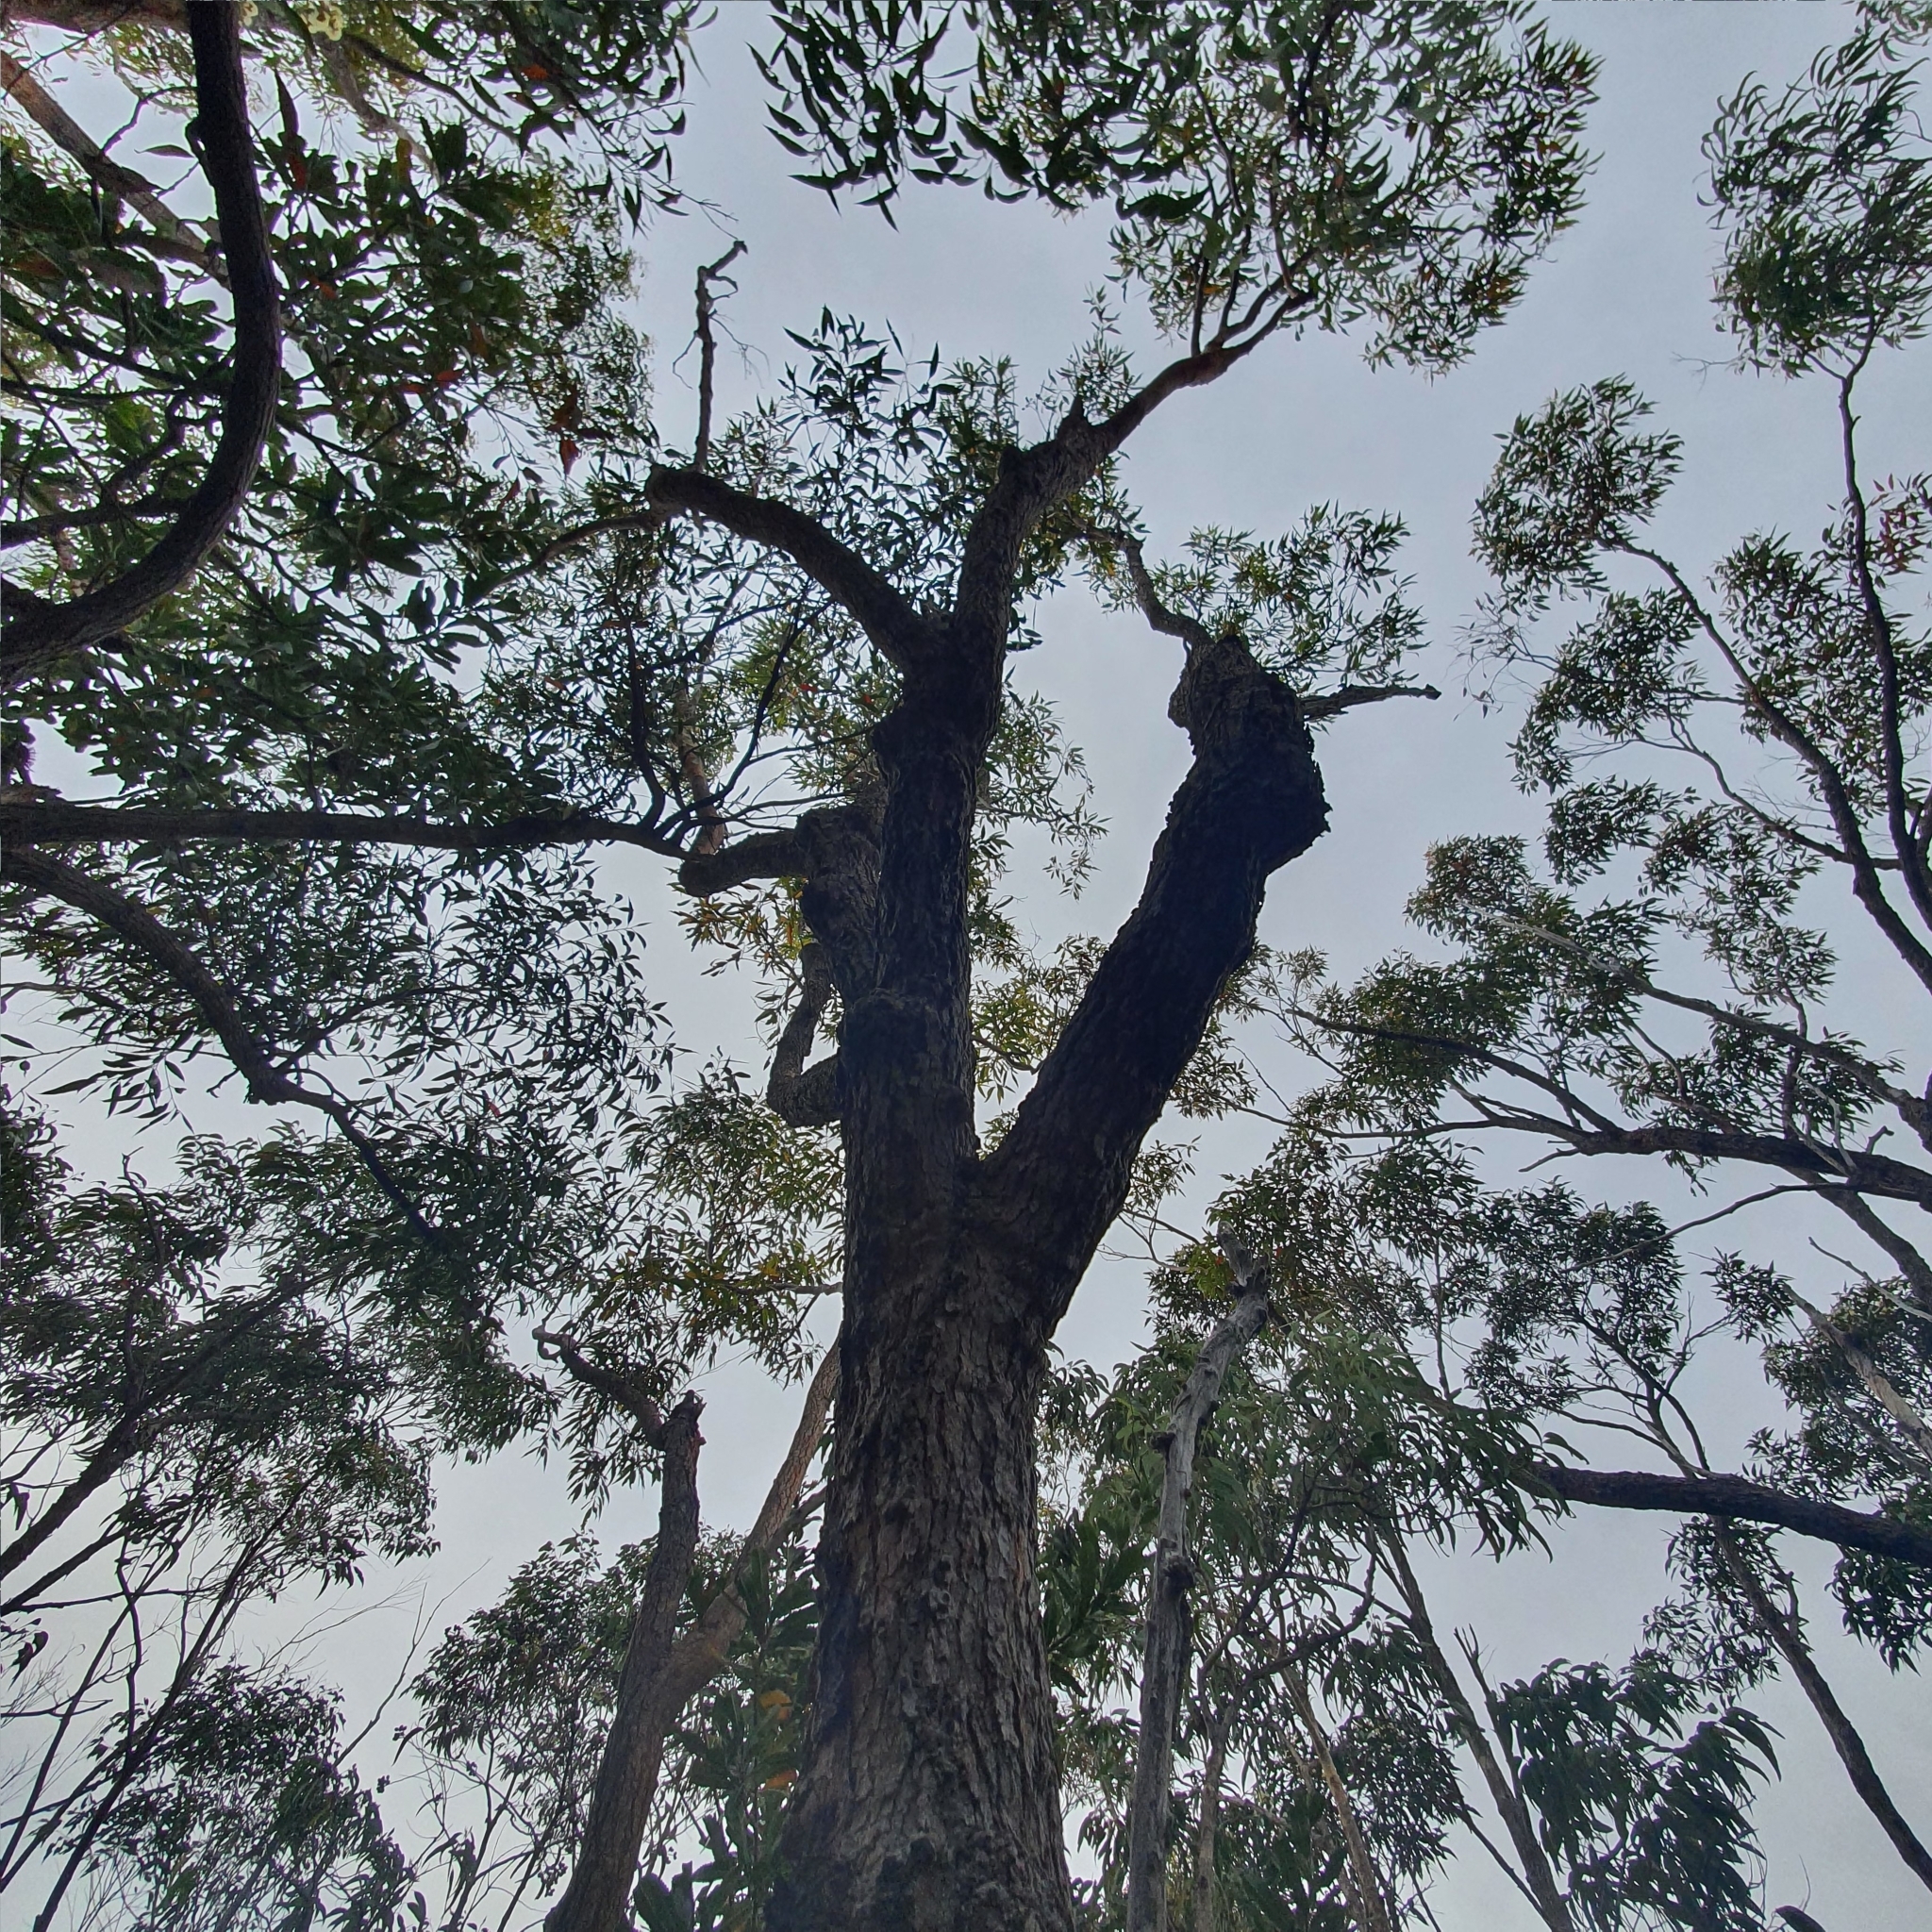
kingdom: Plantae
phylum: Tracheophyta
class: Magnoliopsida
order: Myrtales
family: Myrtaceae
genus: Corymbia
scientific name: Corymbia gummifera
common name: Red bloodwood
